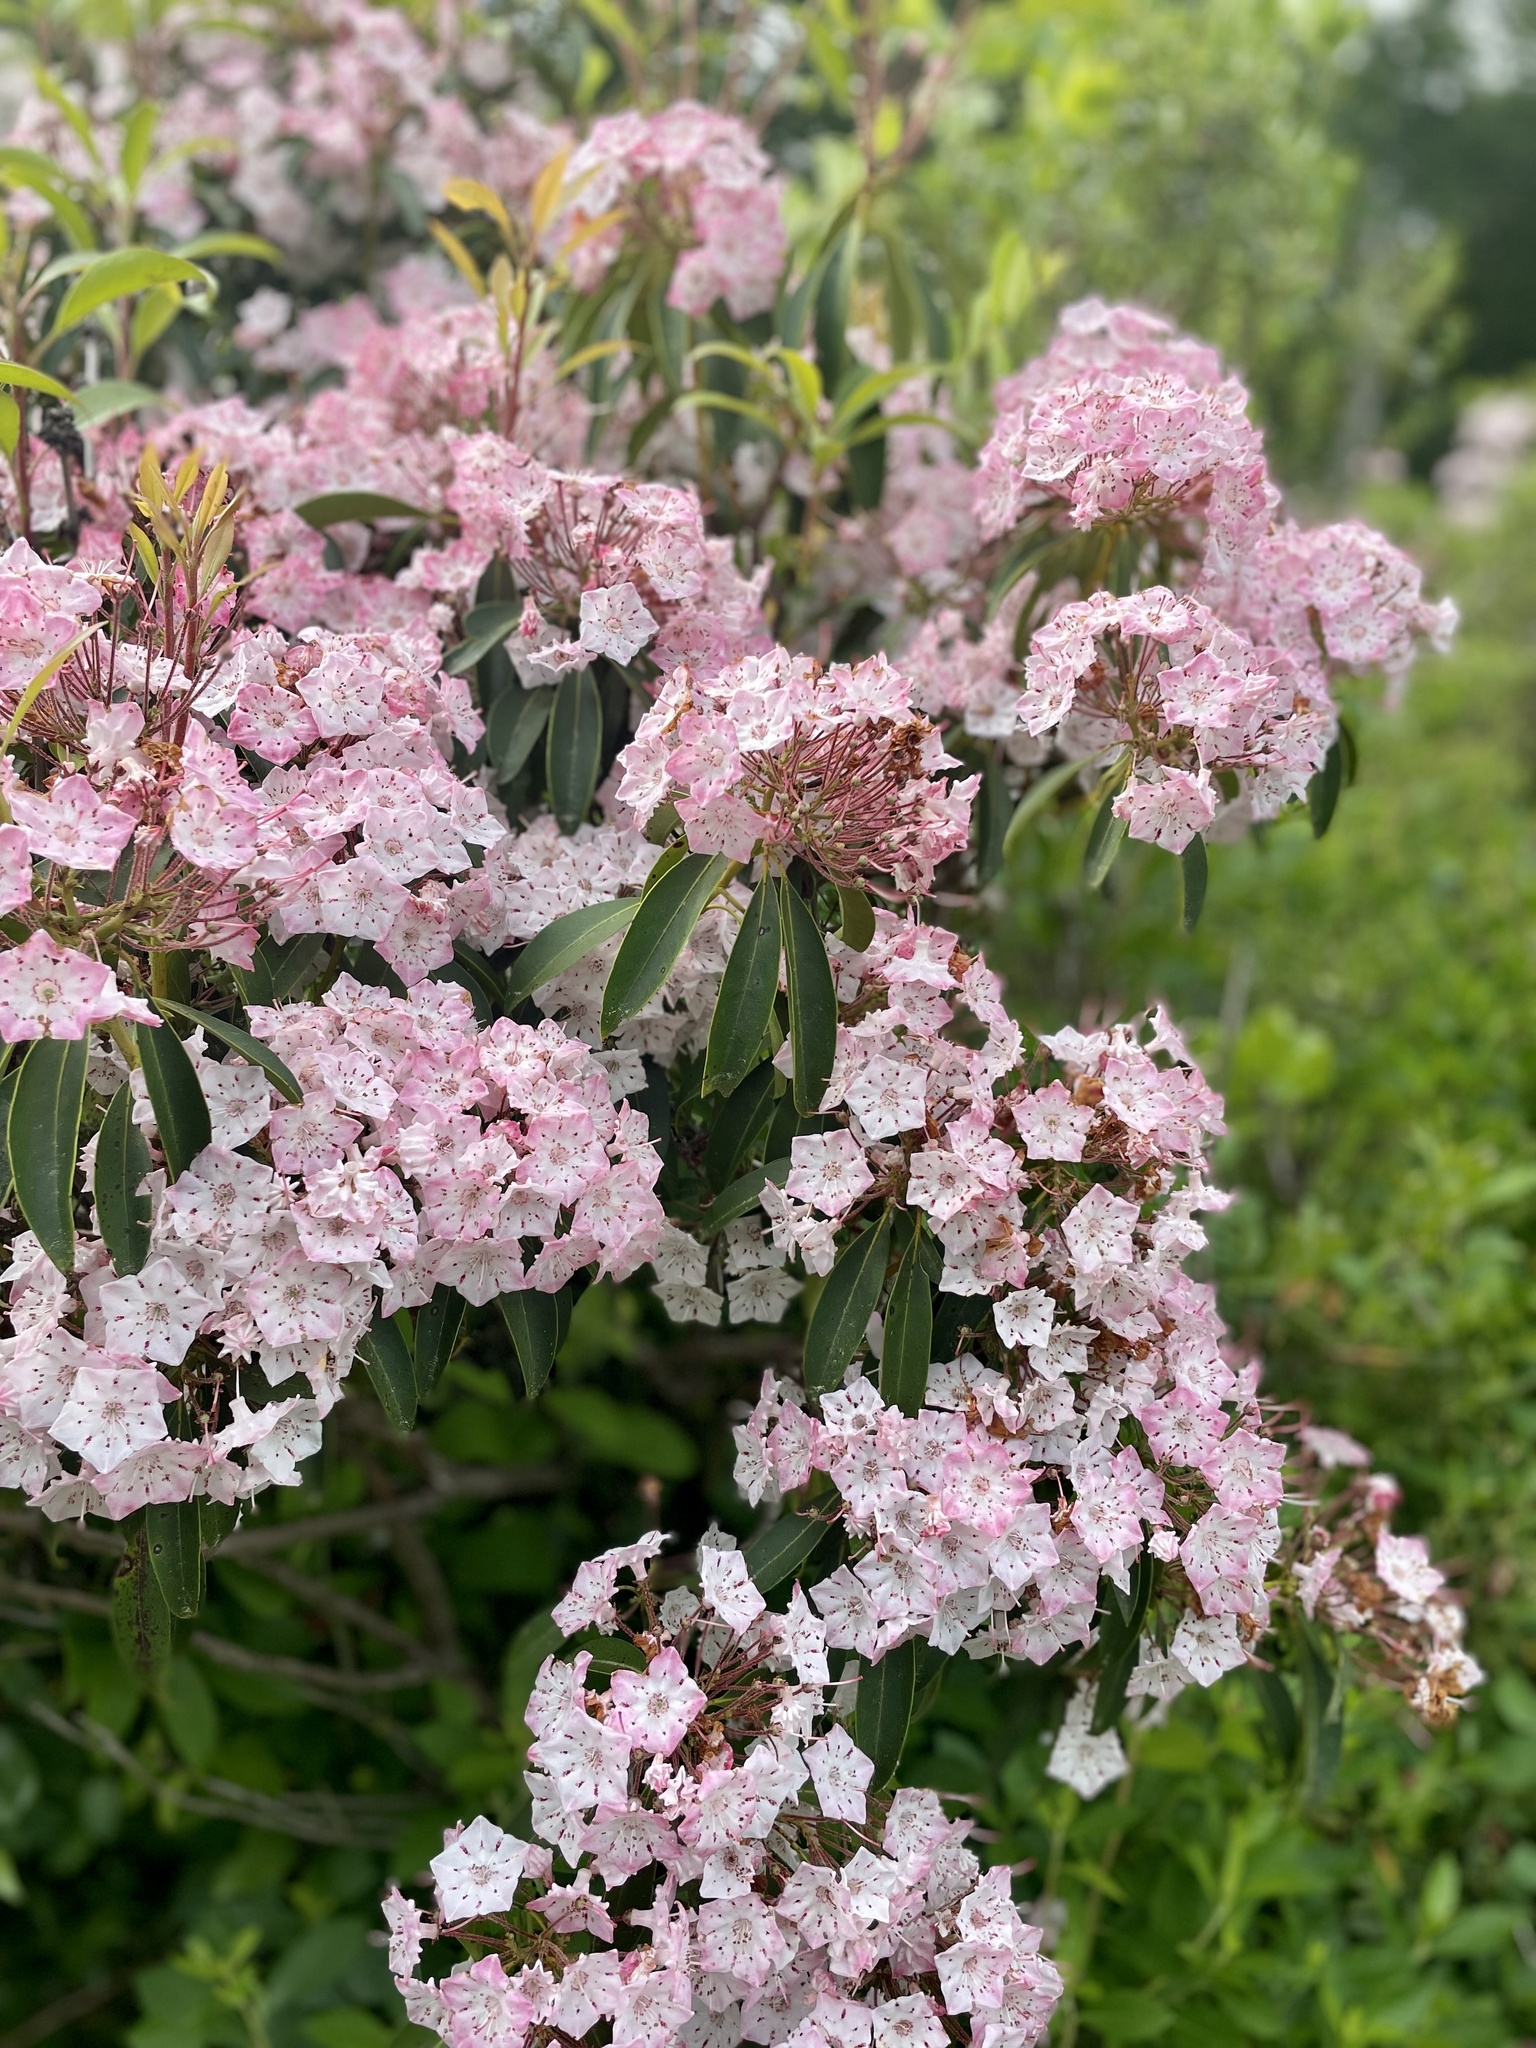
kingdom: Plantae
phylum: Tracheophyta
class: Magnoliopsida
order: Ericales
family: Ericaceae
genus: Kalmia
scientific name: Kalmia latifolia
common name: Mountain-laurel
